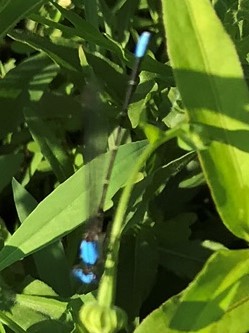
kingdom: Animalia
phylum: Arthropoda
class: Insecta
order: Odonata
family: Coenagrionidae
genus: Argia
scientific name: Argia apicalis
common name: Blue-fronted dancer
